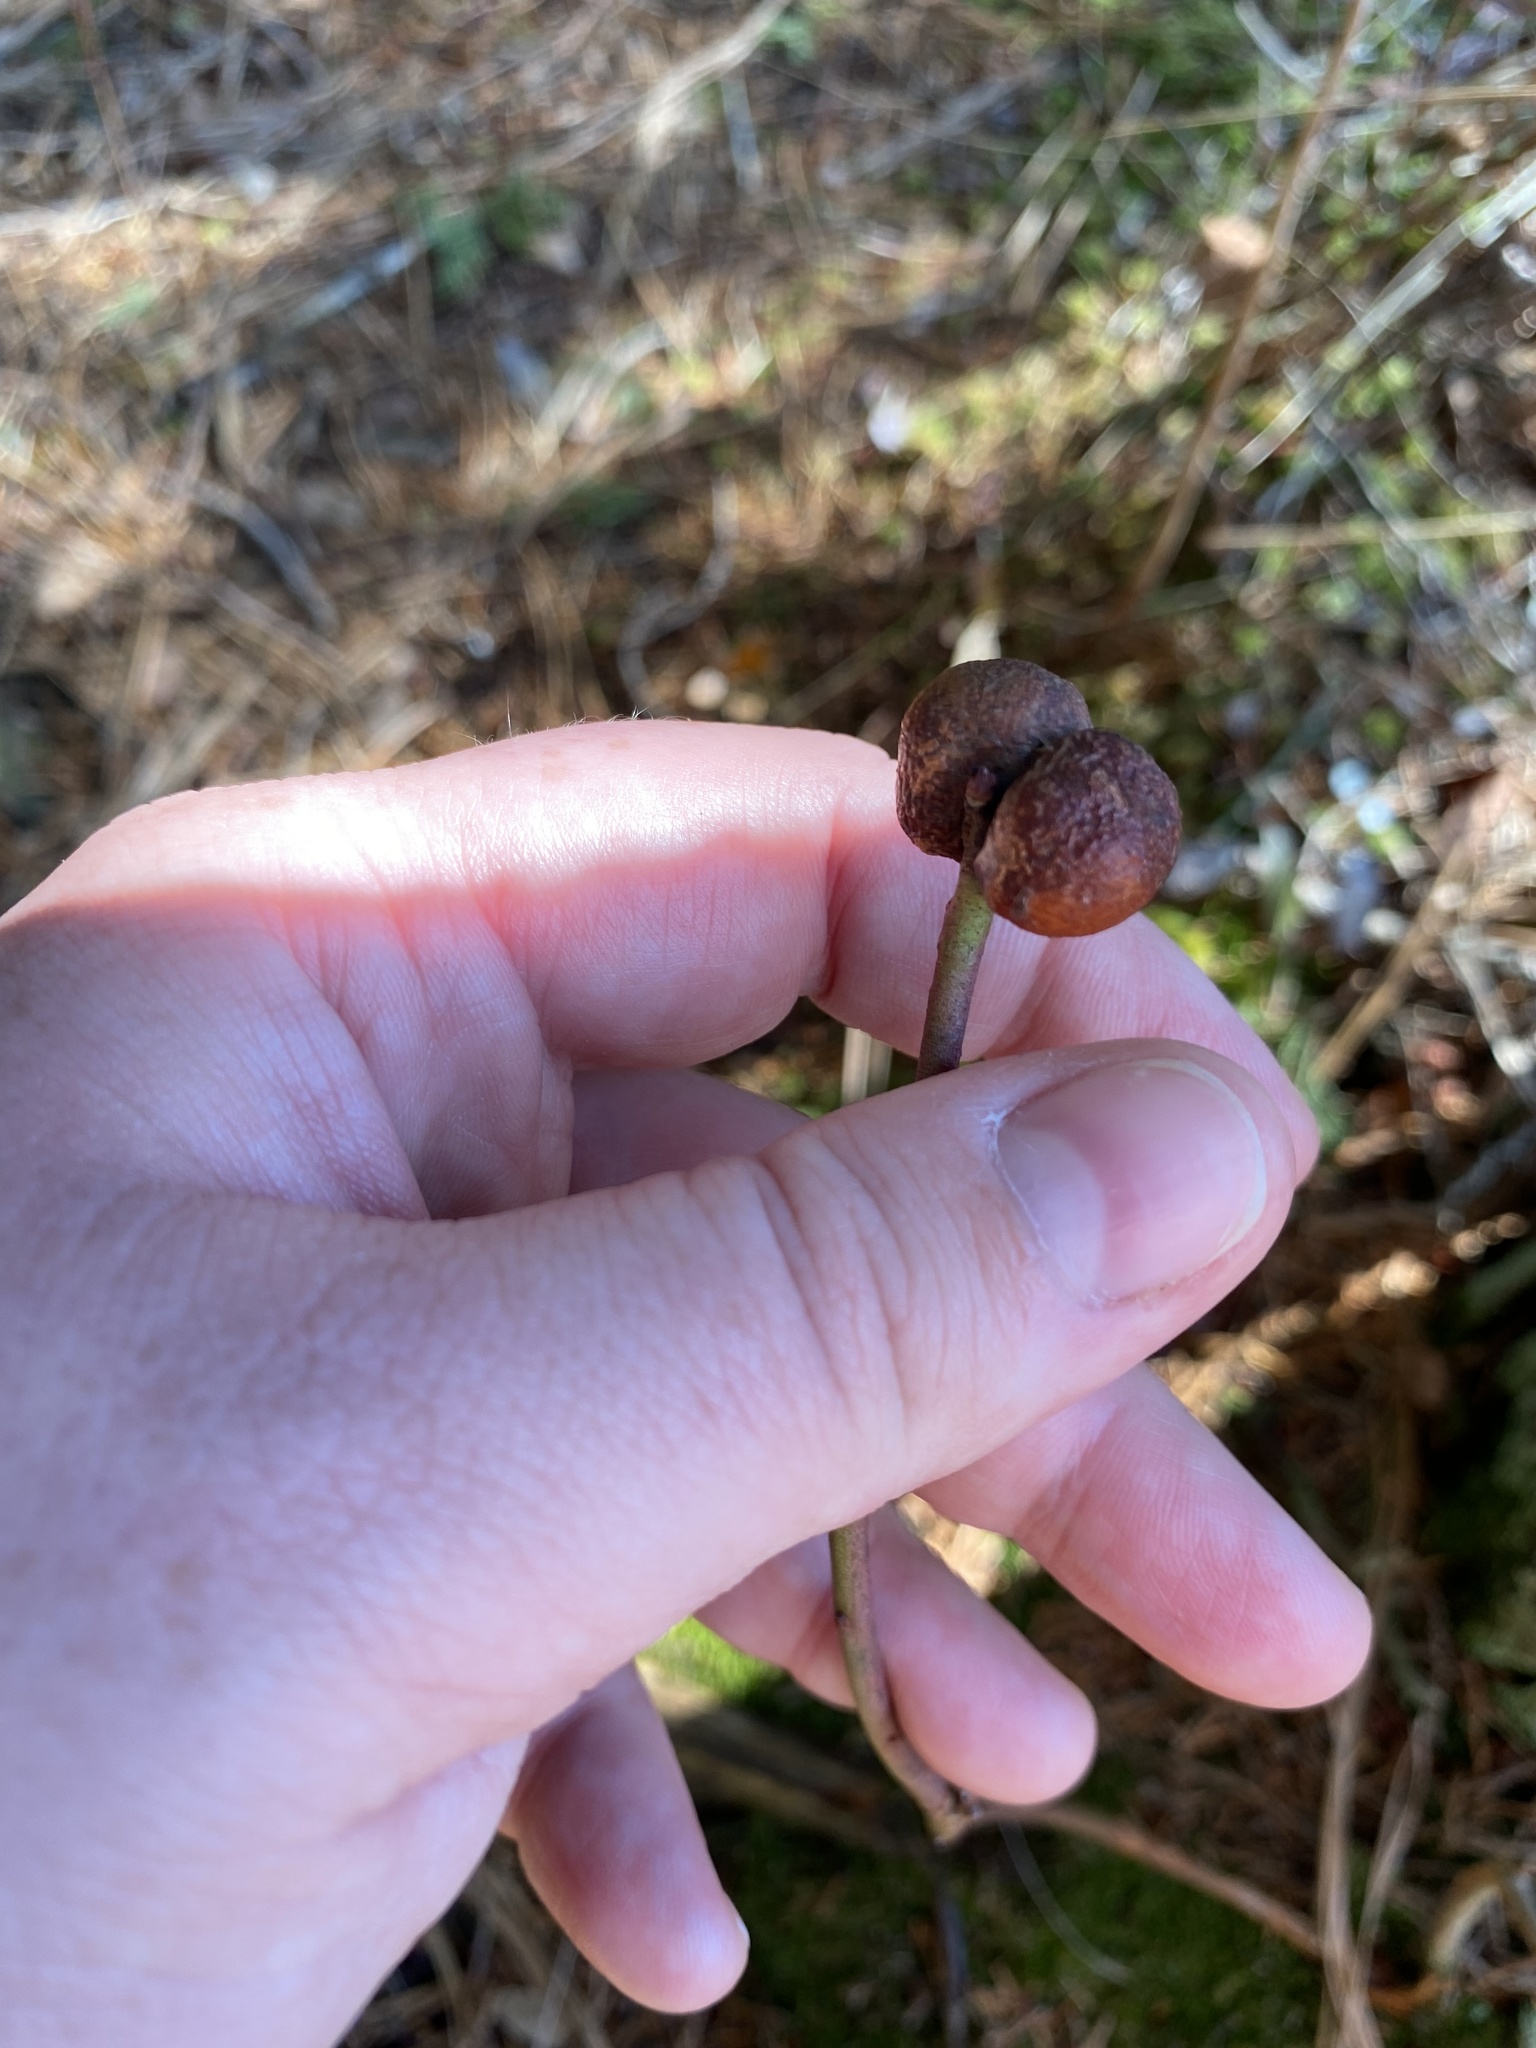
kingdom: Animalia
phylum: Arthropoda
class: Insecta
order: Hymenoptera
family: Pteromalidae
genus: Hemadas
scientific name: Hemadas nubilipennis
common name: Blueberry stem gall wasp
